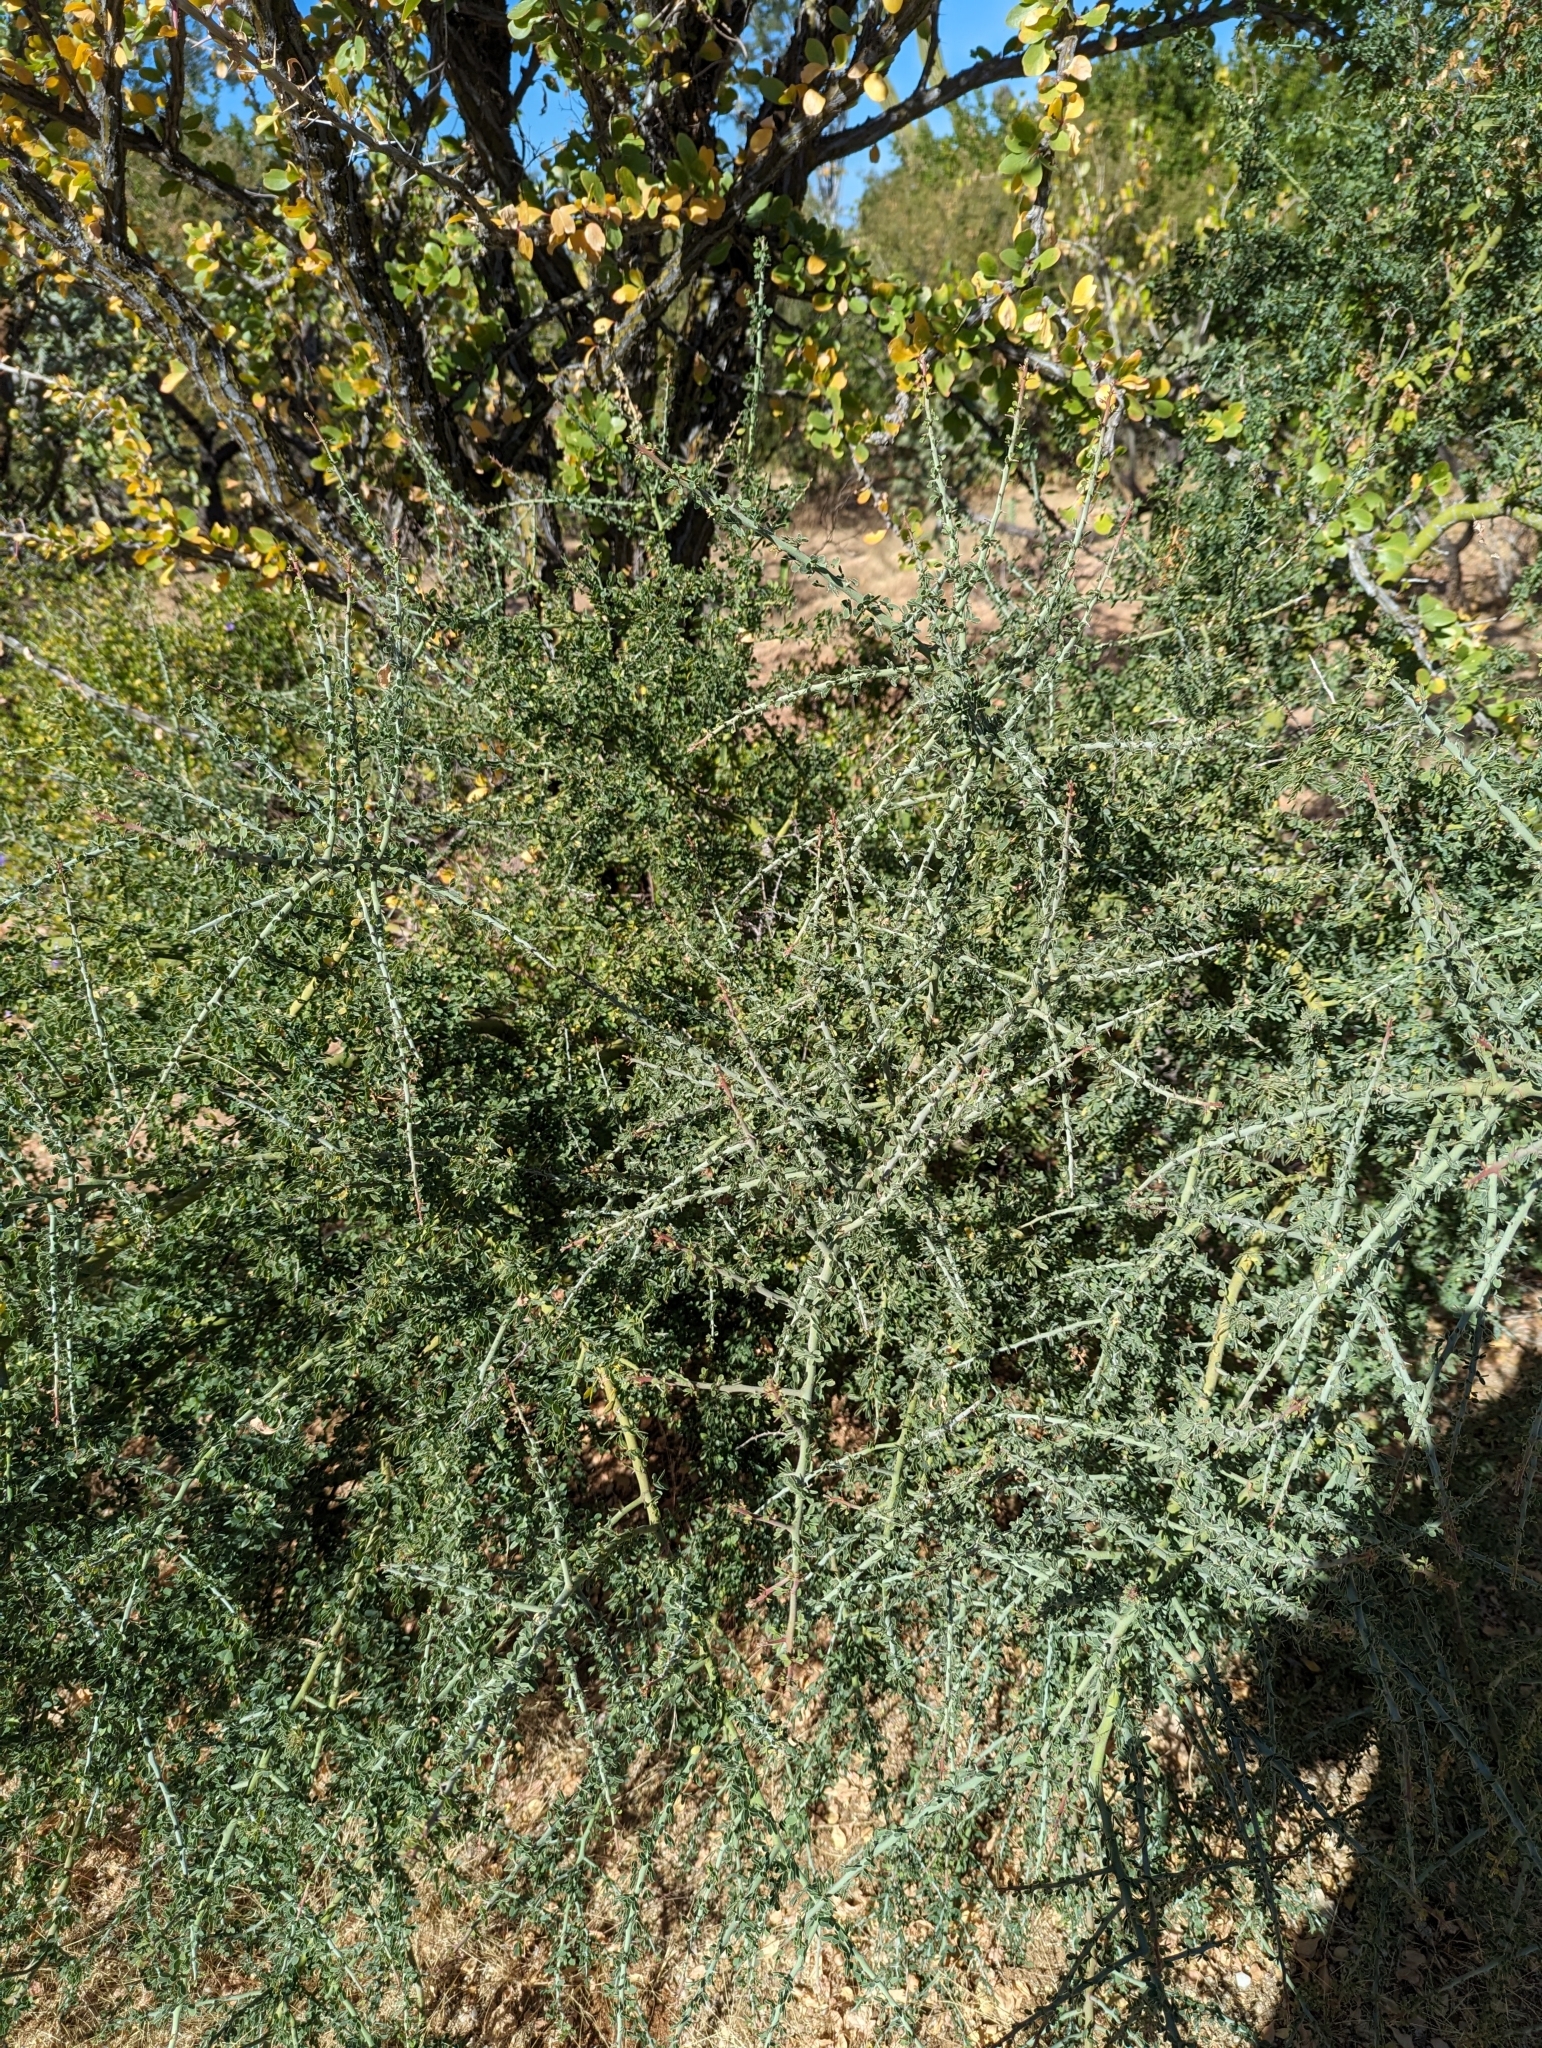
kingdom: Plantae
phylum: Tracheophyta
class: Magnoliopsida
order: Fabales
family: Fabaceae
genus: Parkinsonia
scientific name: Parkinsonia florida
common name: Blue paloverde
